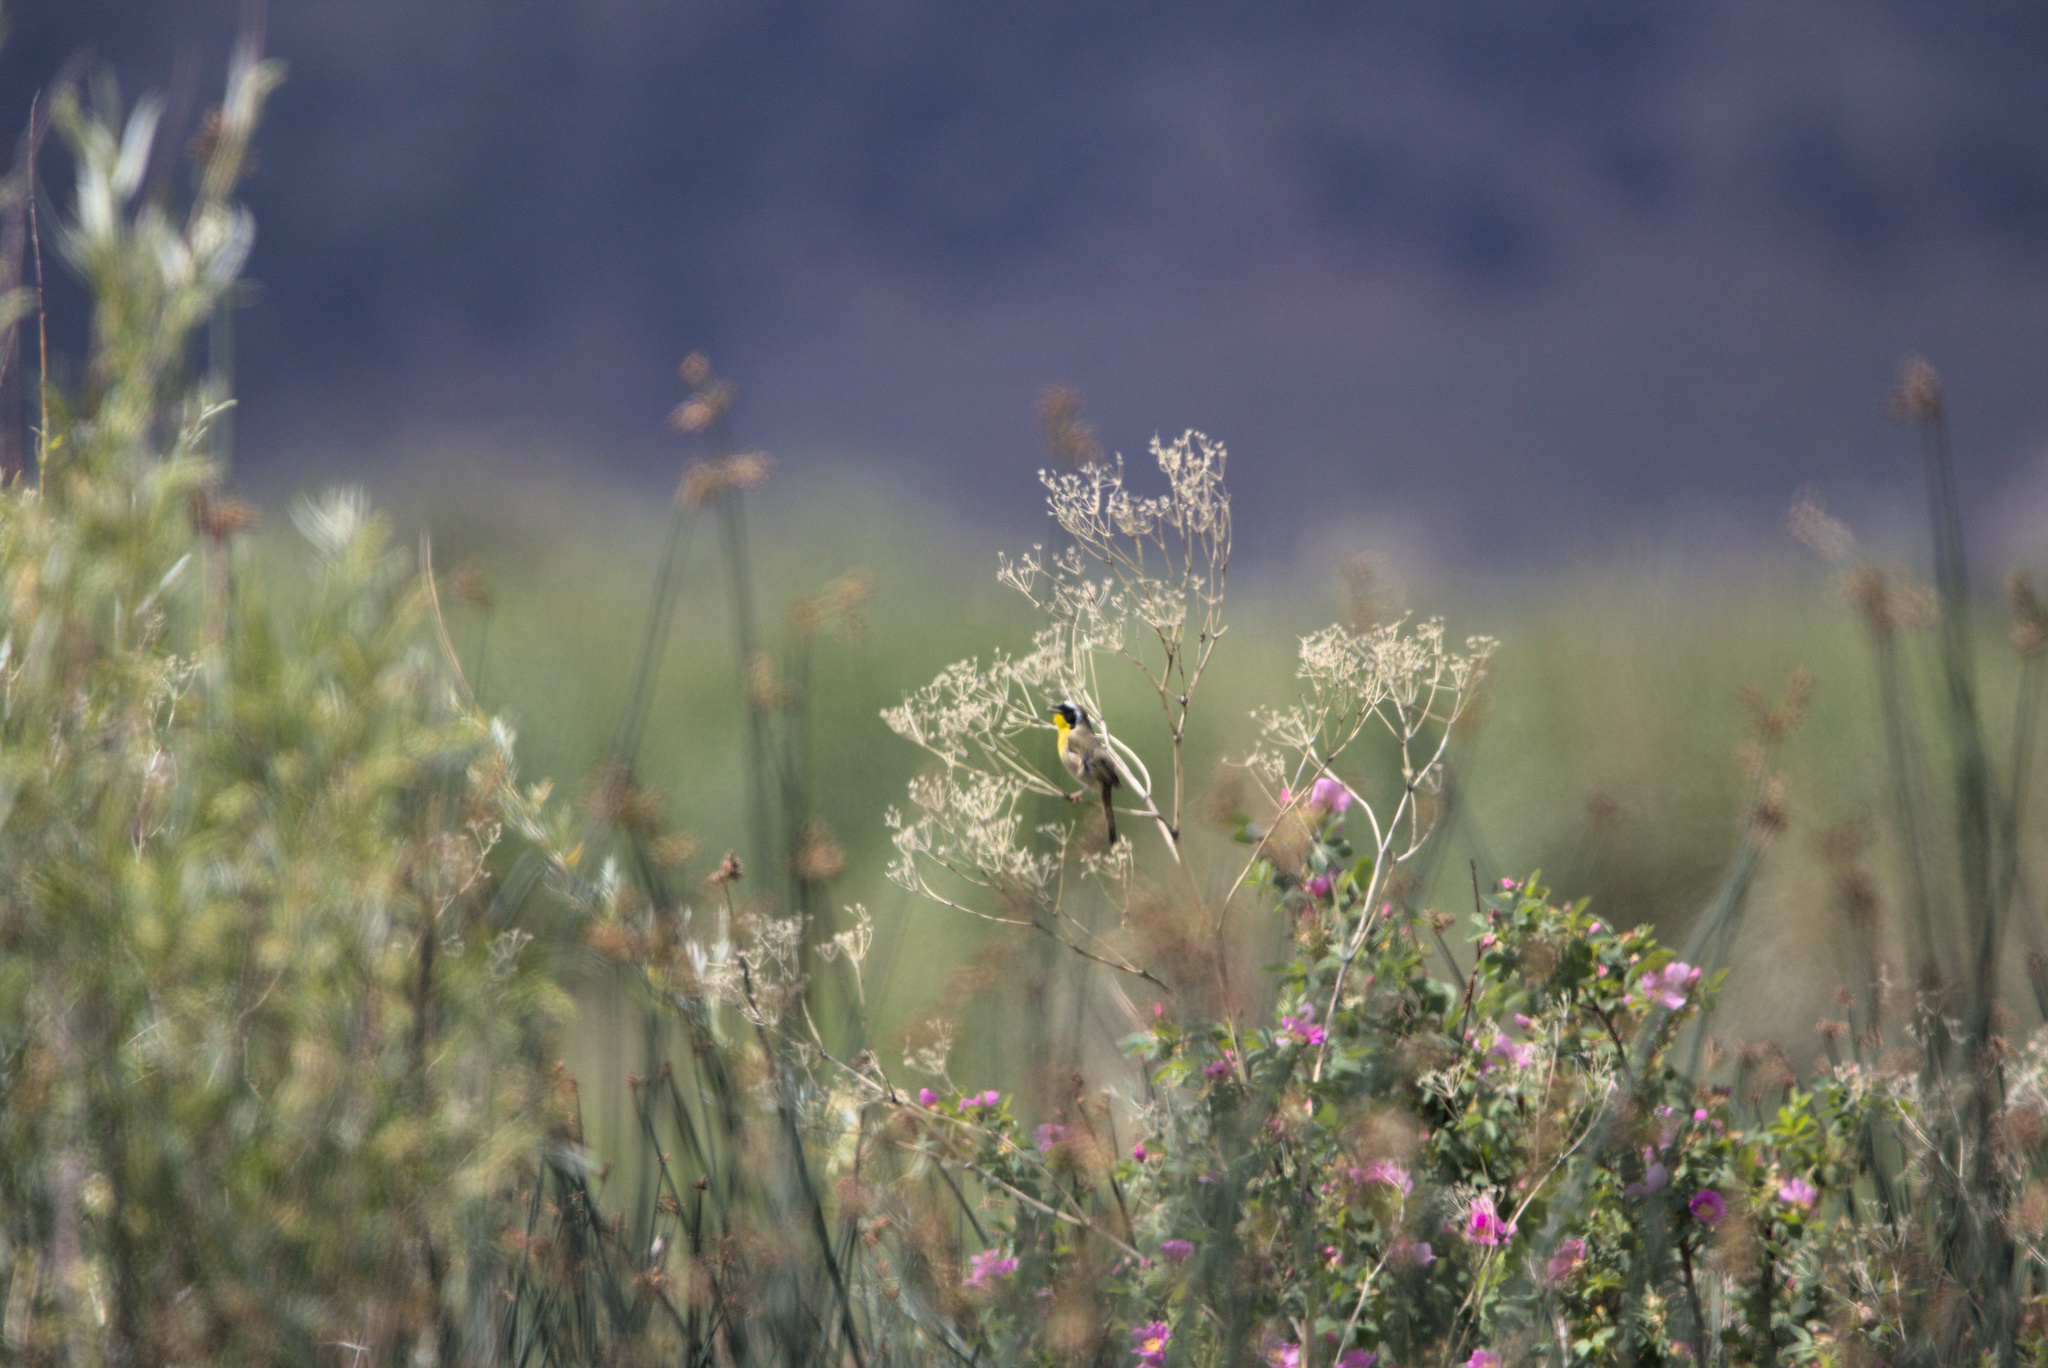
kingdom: Animalia
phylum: Chordata
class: Aves
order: Passeriformes
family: Parulidae
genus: Geothlypis
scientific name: Geothlypis trichas
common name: Common yellowthroat
